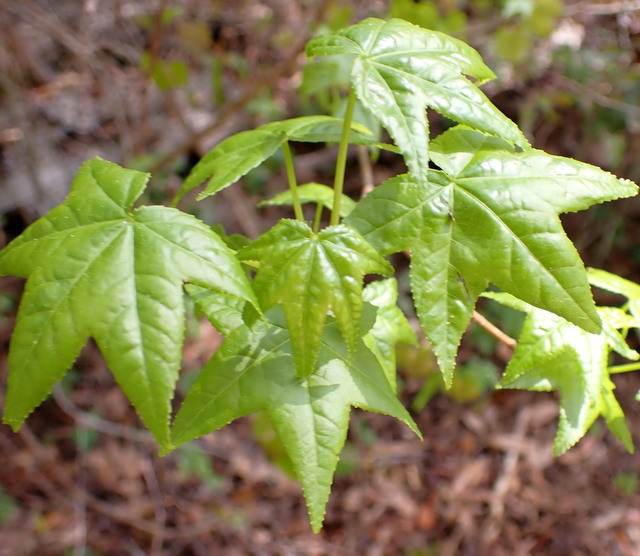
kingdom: Plantae
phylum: Tracheophyta
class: Magnoliopsida
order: Saxifragales
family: Altingiaceae
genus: Liquidambar
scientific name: Liquidambar styraciflua
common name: Sweet gum
